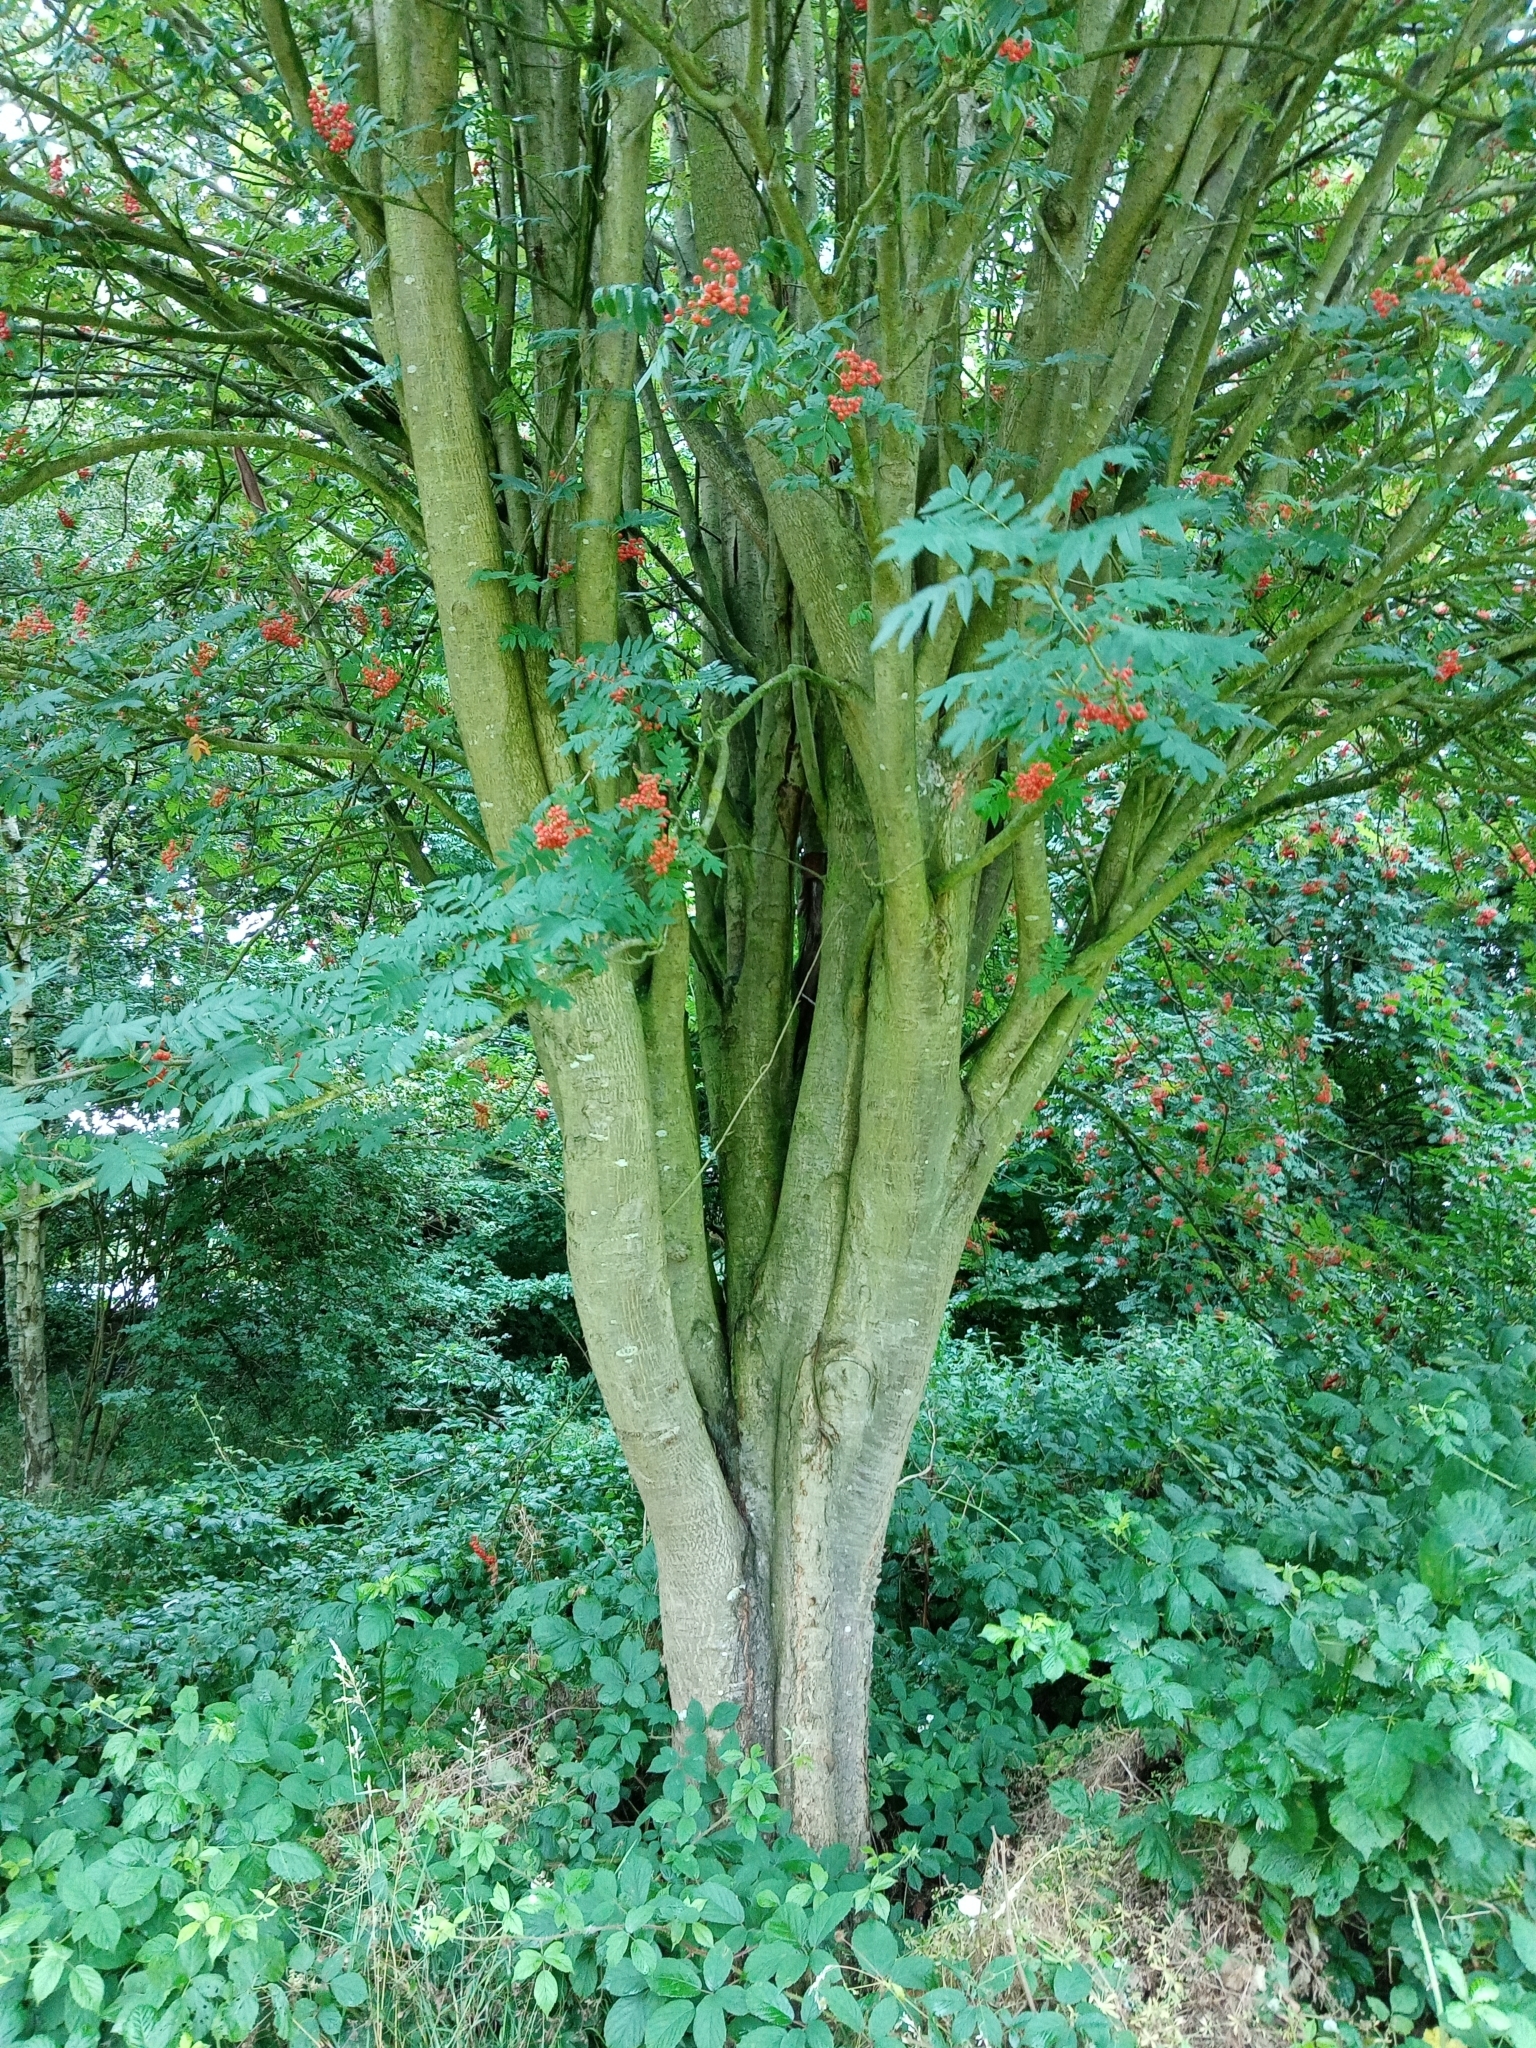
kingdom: Plantae
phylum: Tracheophyta
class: Magnoliopsida
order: Rosales
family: Rosaceae
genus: Sorbus
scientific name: Sorbus aucuparia
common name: Rowan
